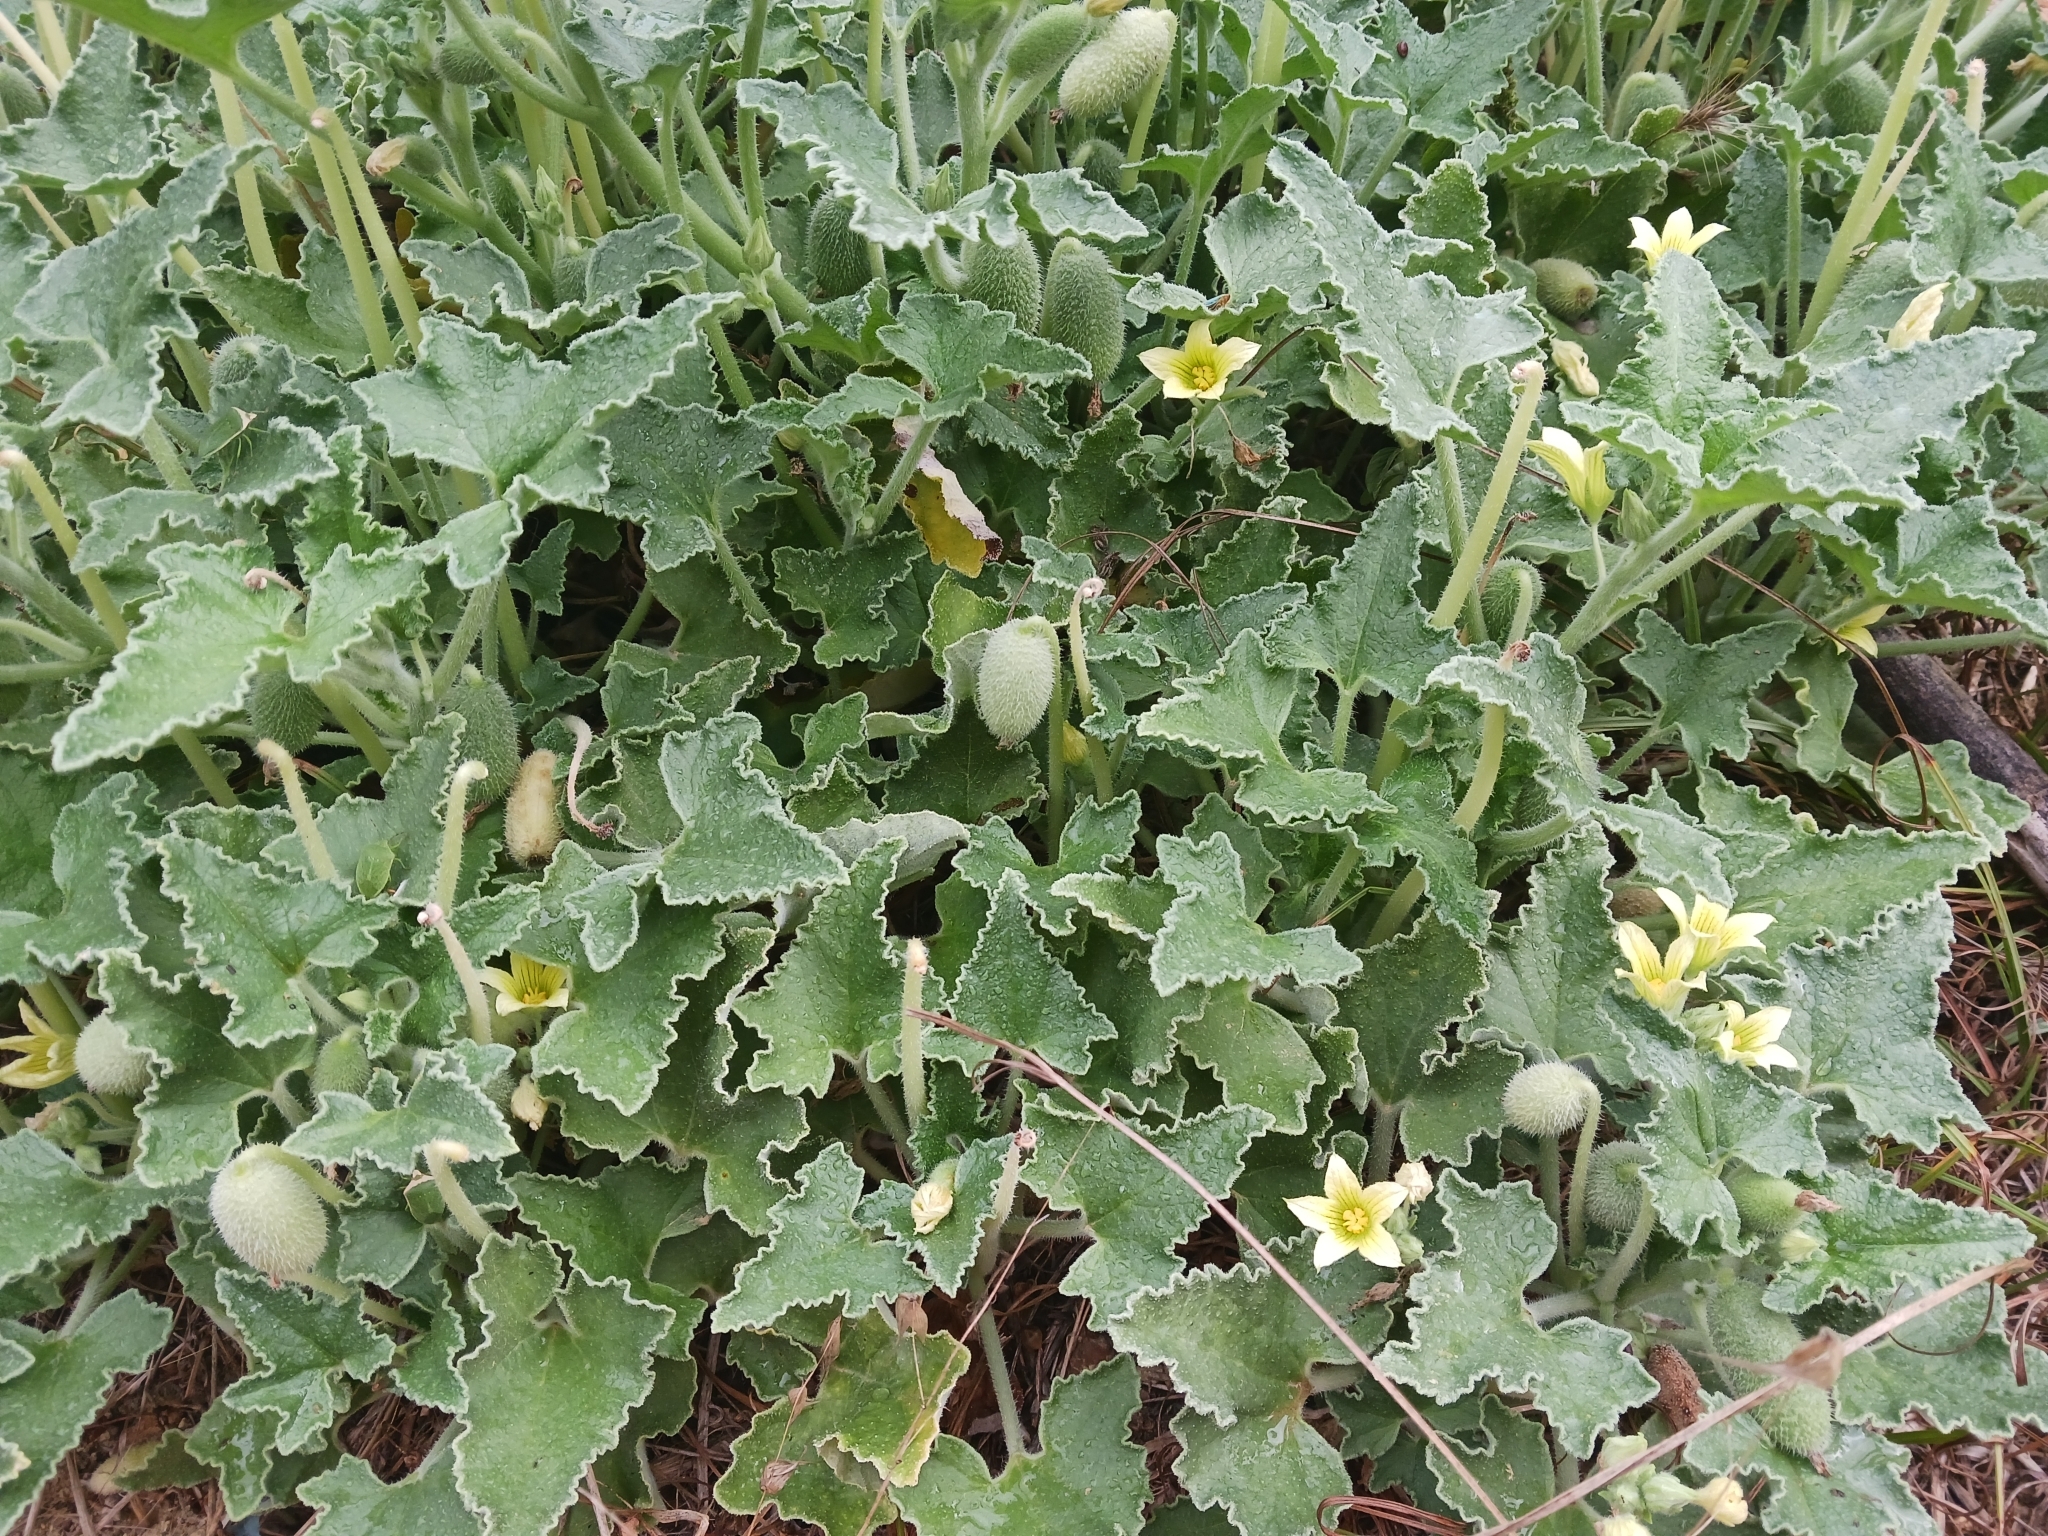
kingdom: Plantae
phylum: Tracheophyta
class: Magnoliopsida
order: Cucurbitales
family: Cucurbitaceae
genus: Ecballium
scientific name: Ecballium elaterium
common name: Squirting cucumber
